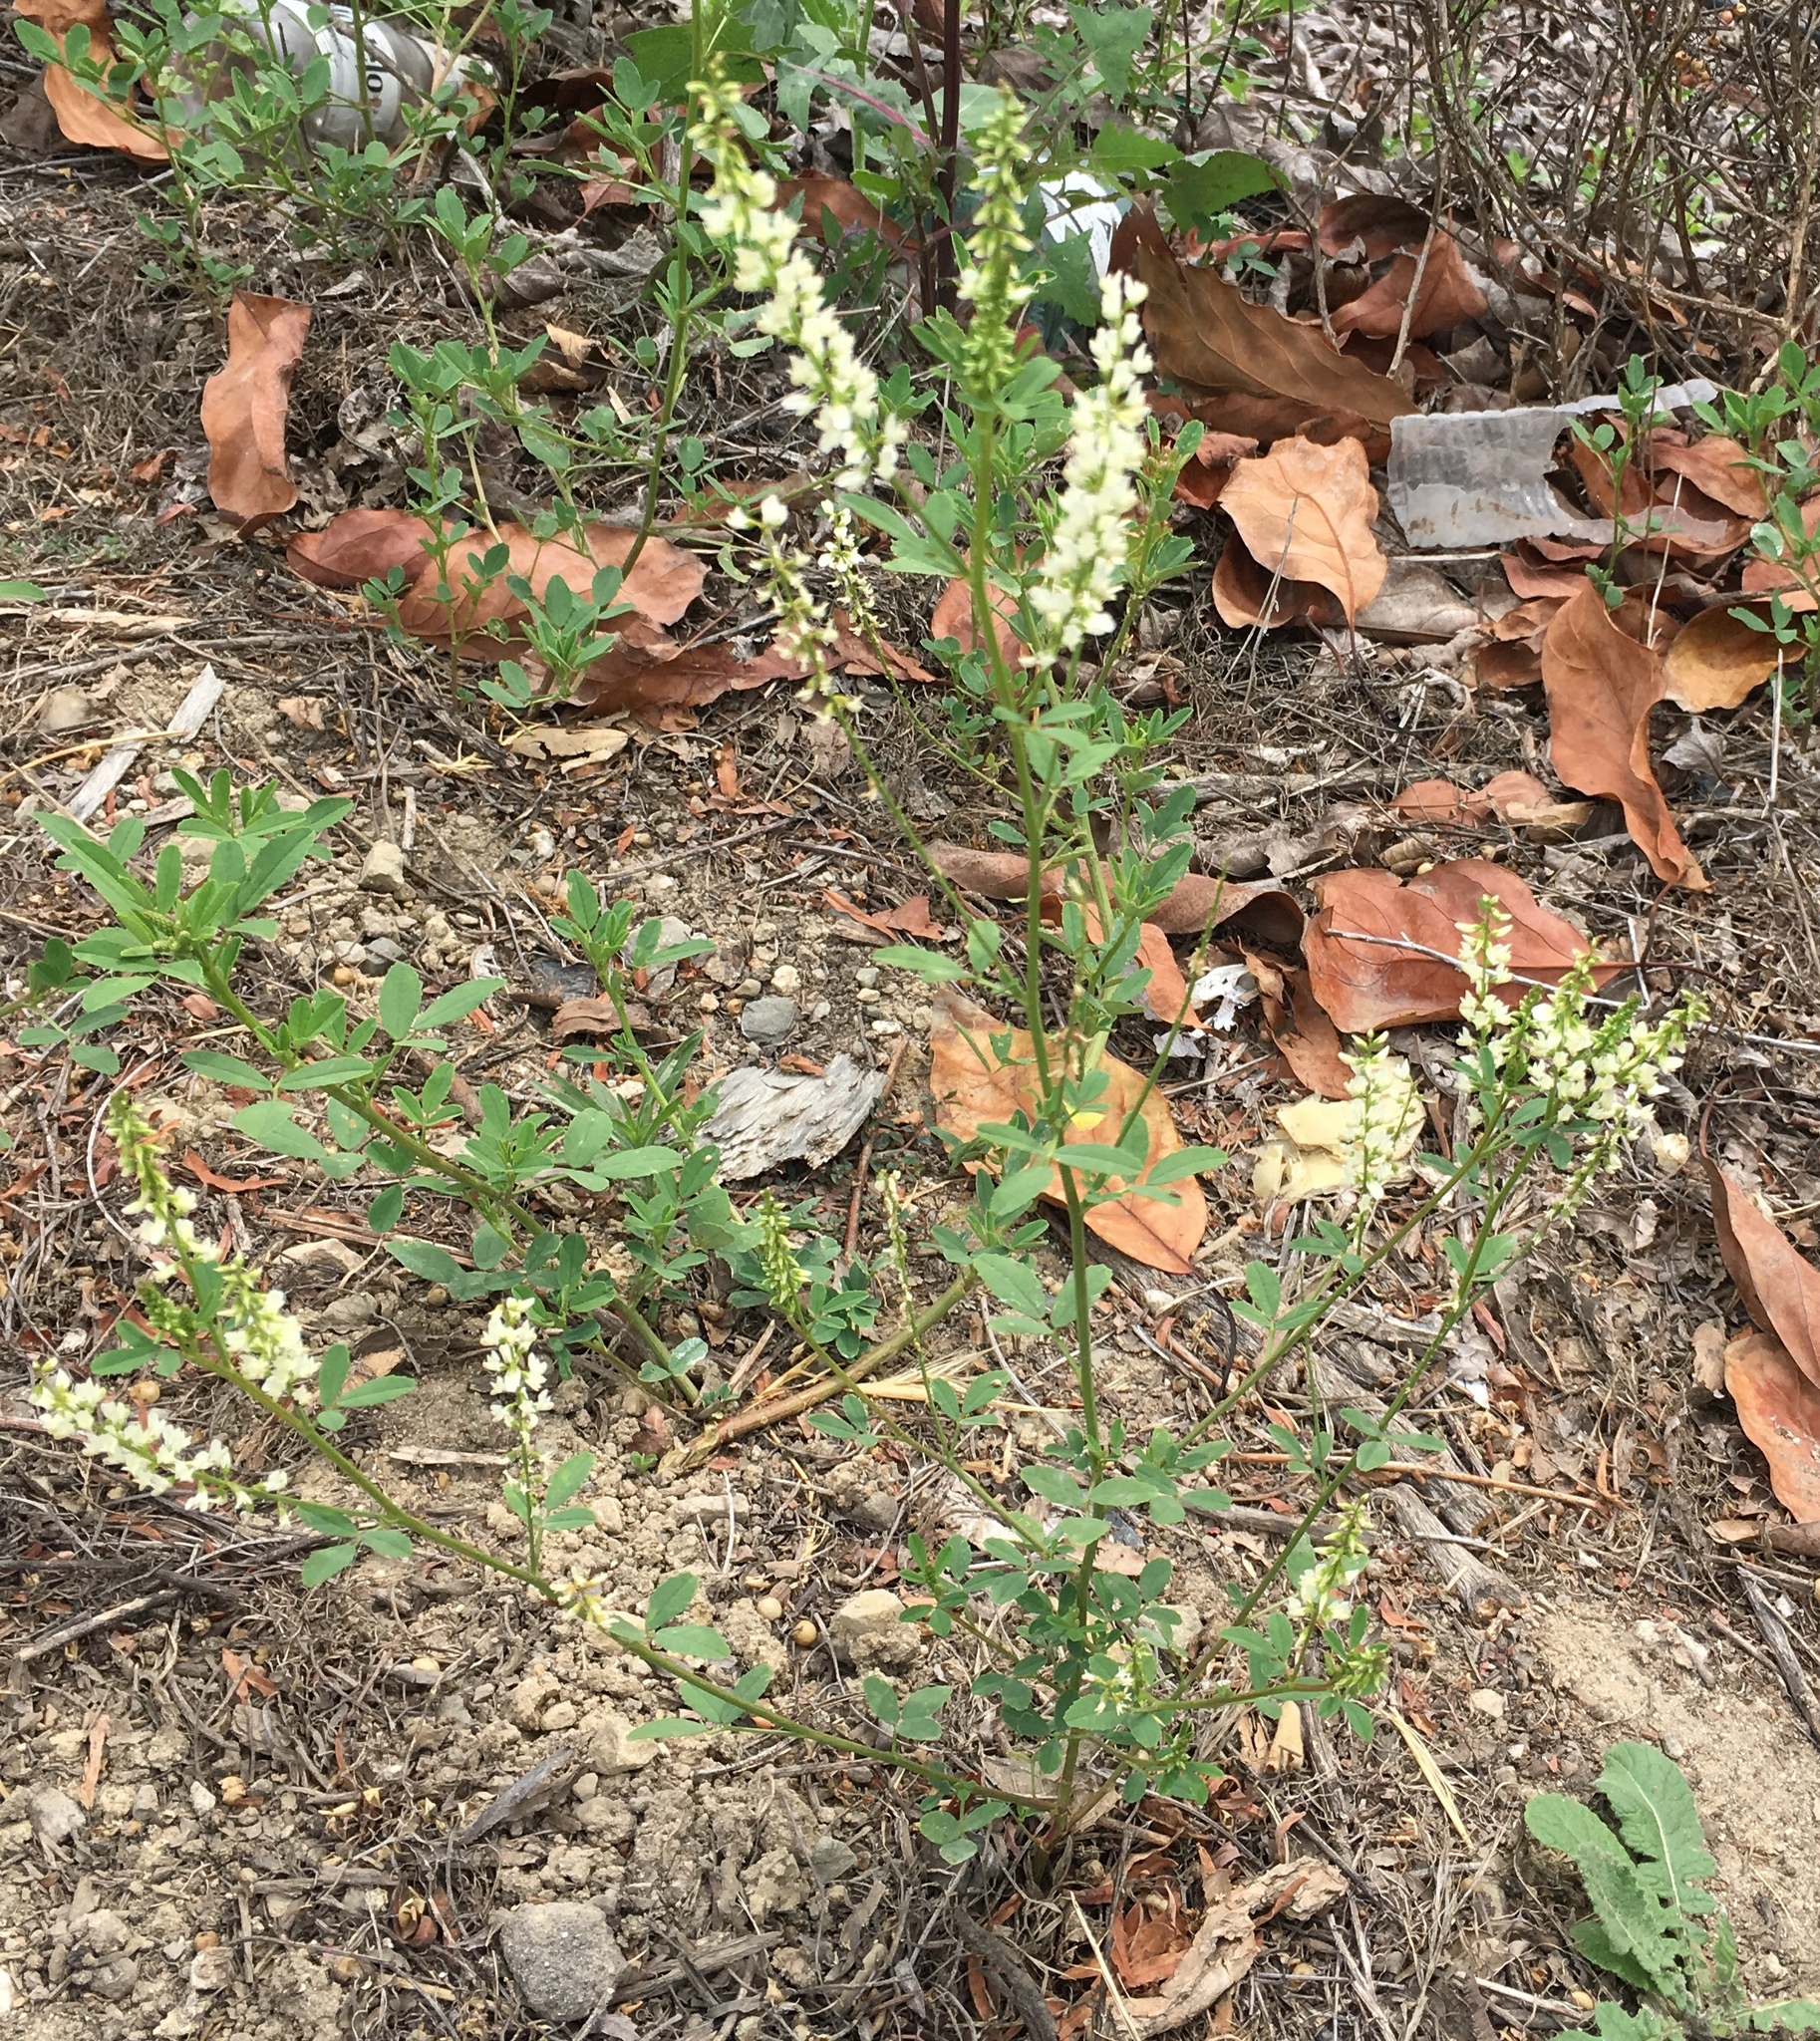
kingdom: Plantae
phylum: Tracheophyta
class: Magnoliopsida
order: Fabales
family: Fabaceae
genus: Melilotus
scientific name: Melilotus albus
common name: White melilot
